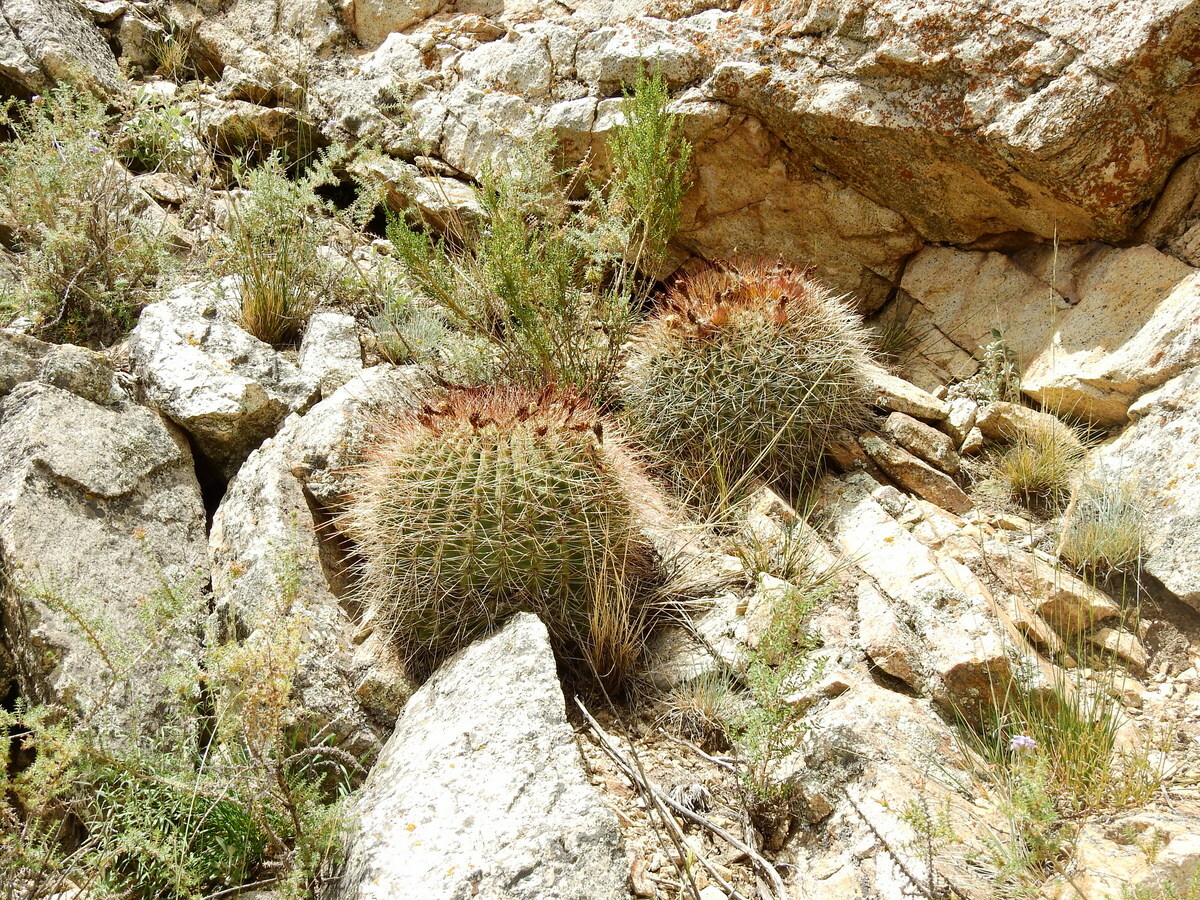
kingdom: Plantae
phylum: Tracheophyta
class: Magnoliopsida
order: Caryophyllales
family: Cactaceae
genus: Soehrensia
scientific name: Soehrensia formosa
